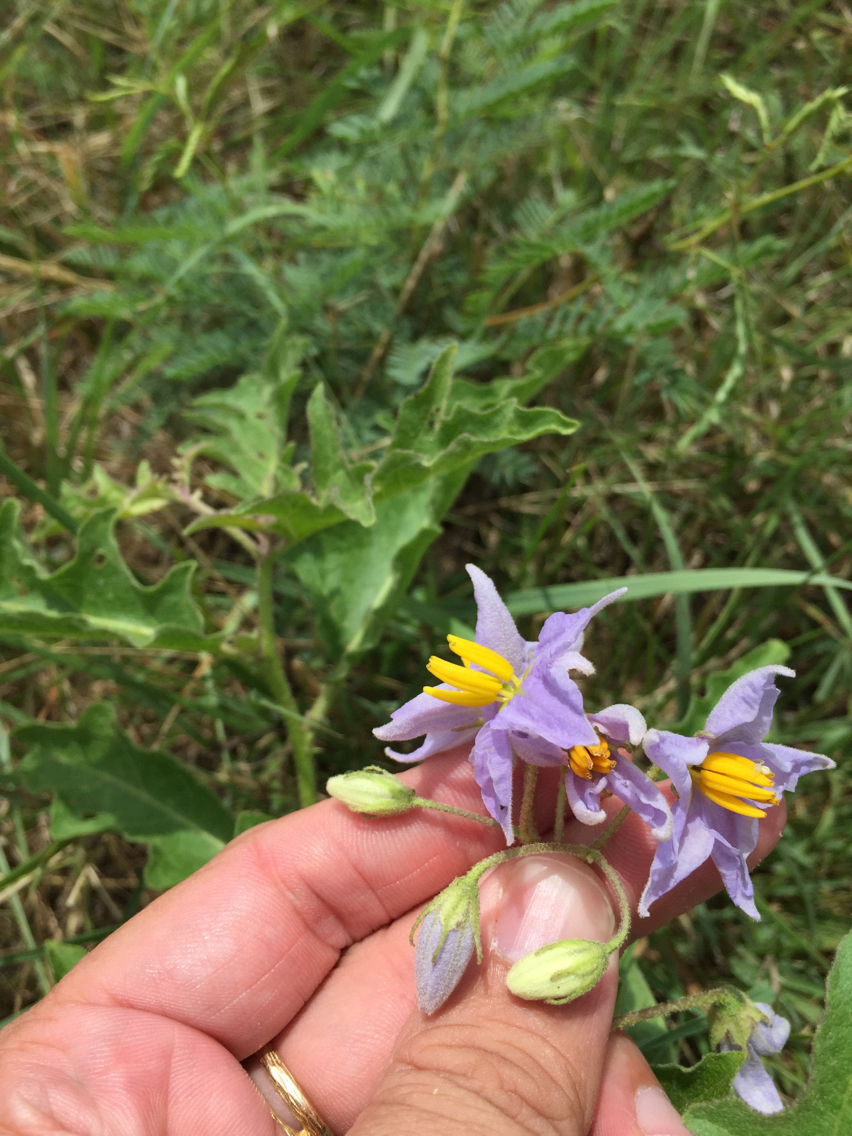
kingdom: Plantae
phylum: Tracheophyta
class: Magnoliopsida
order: Solanales
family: Solanaceae
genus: Solanum
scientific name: Solanum dimidiatum
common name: Carolina horse-nettle
